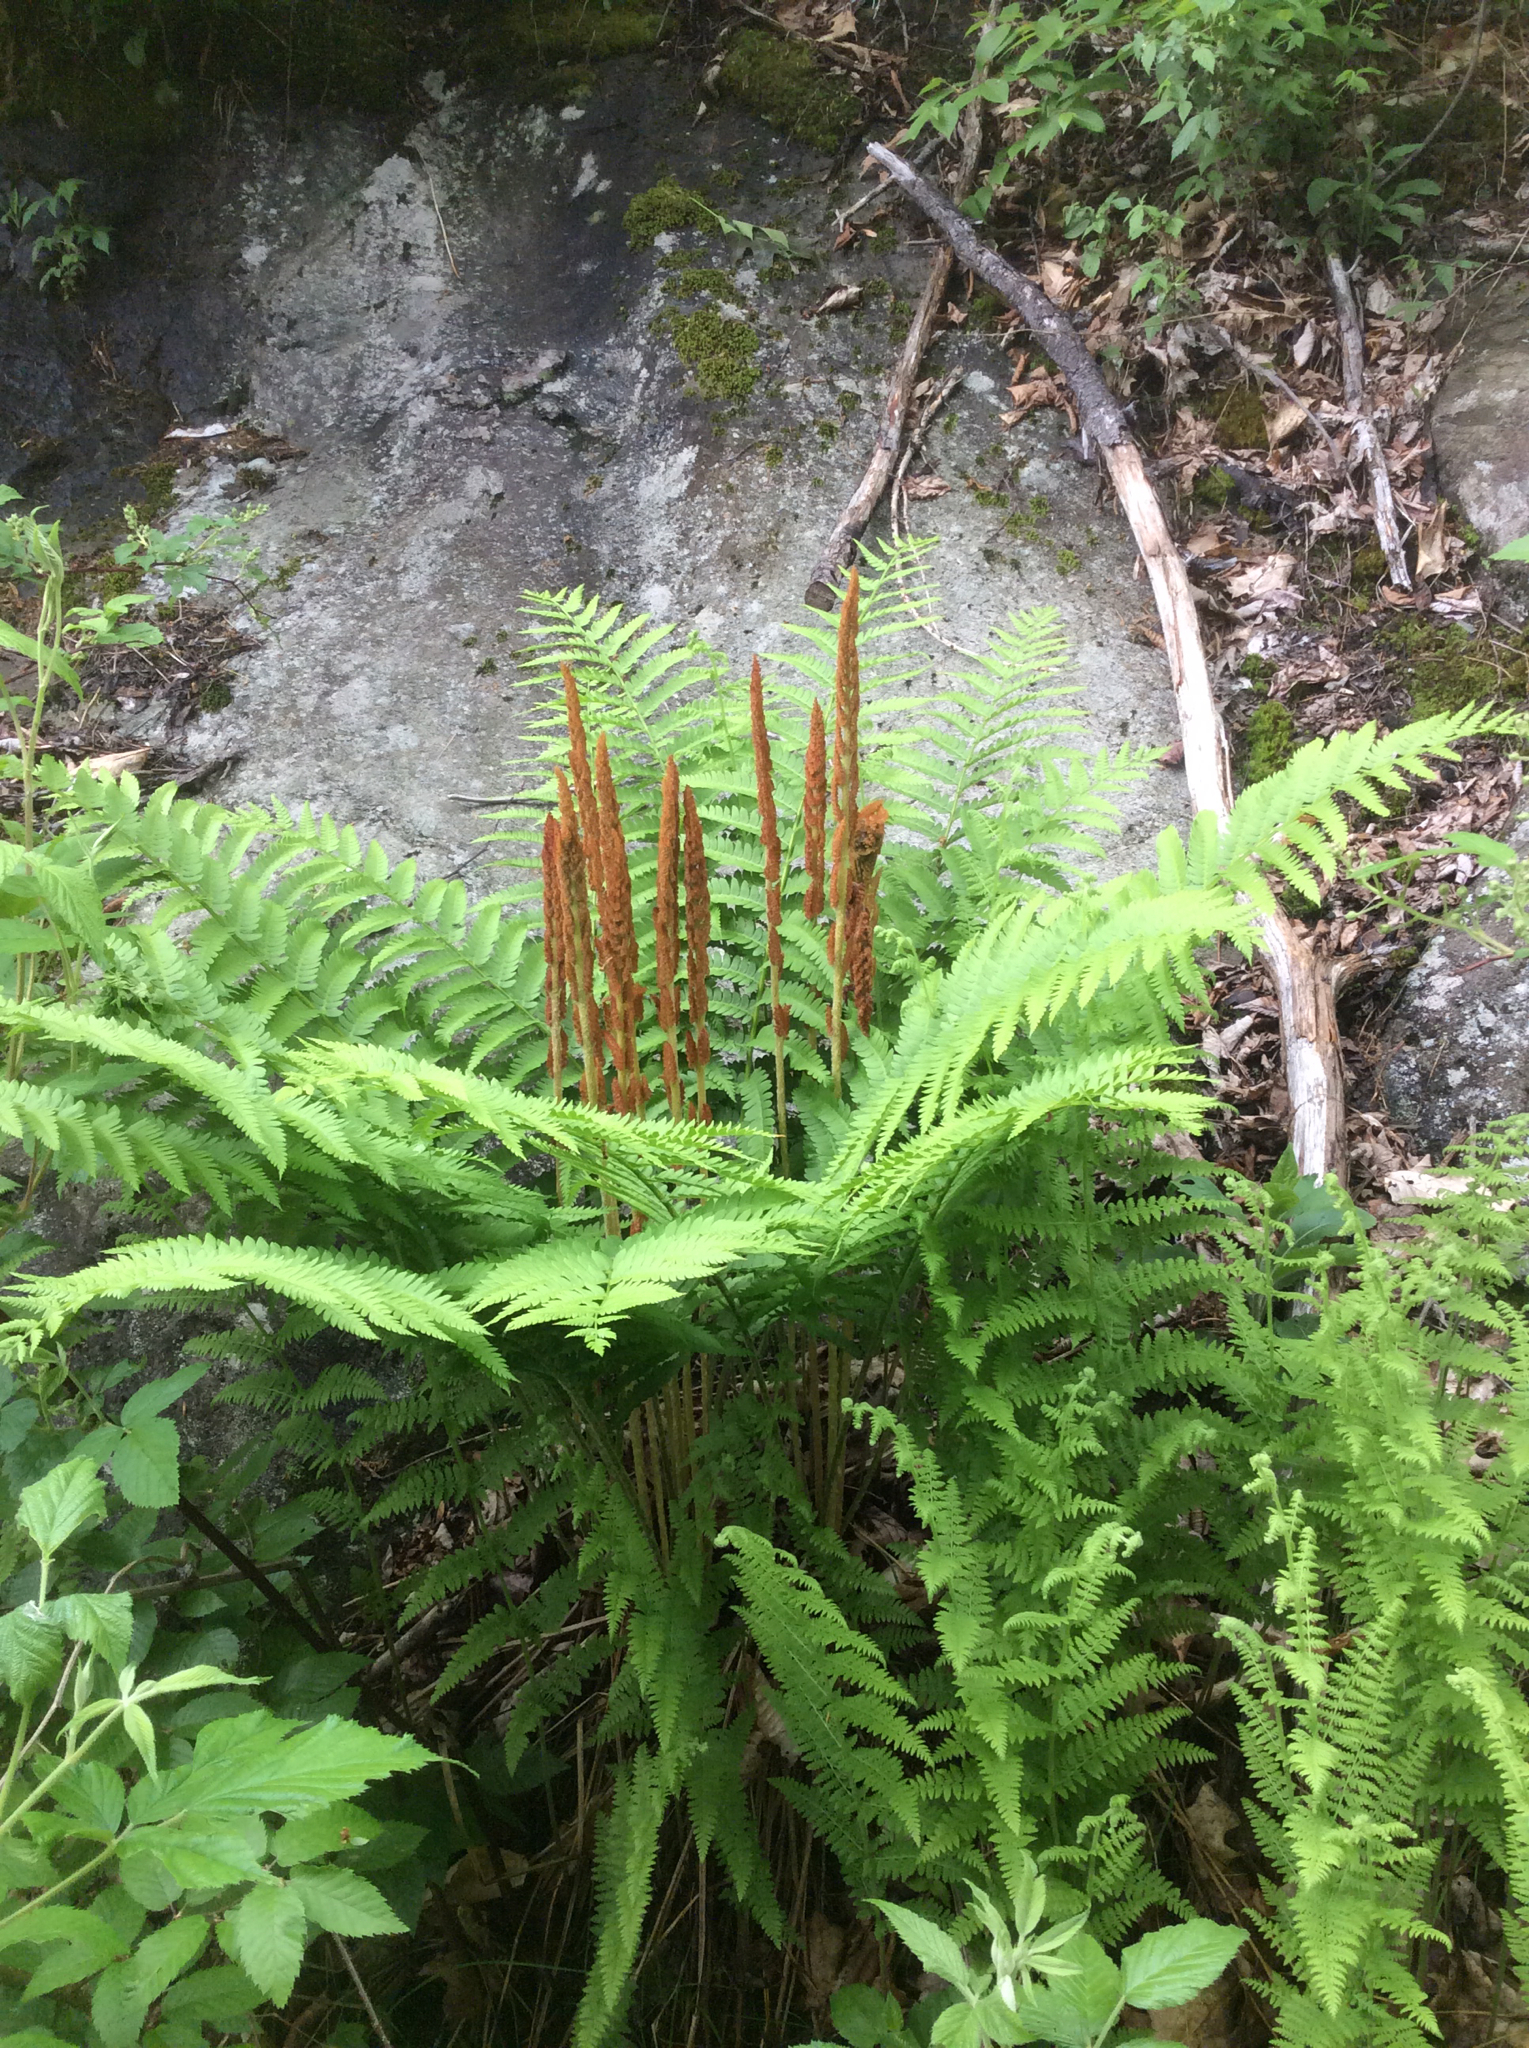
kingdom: Plantae
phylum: Tracheophyta
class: Polypodiopsida
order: Osmundales
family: Osmundaceae
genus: Osmundastrum
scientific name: Osmundastrum cinnamomeum
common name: Cinnamon fern
